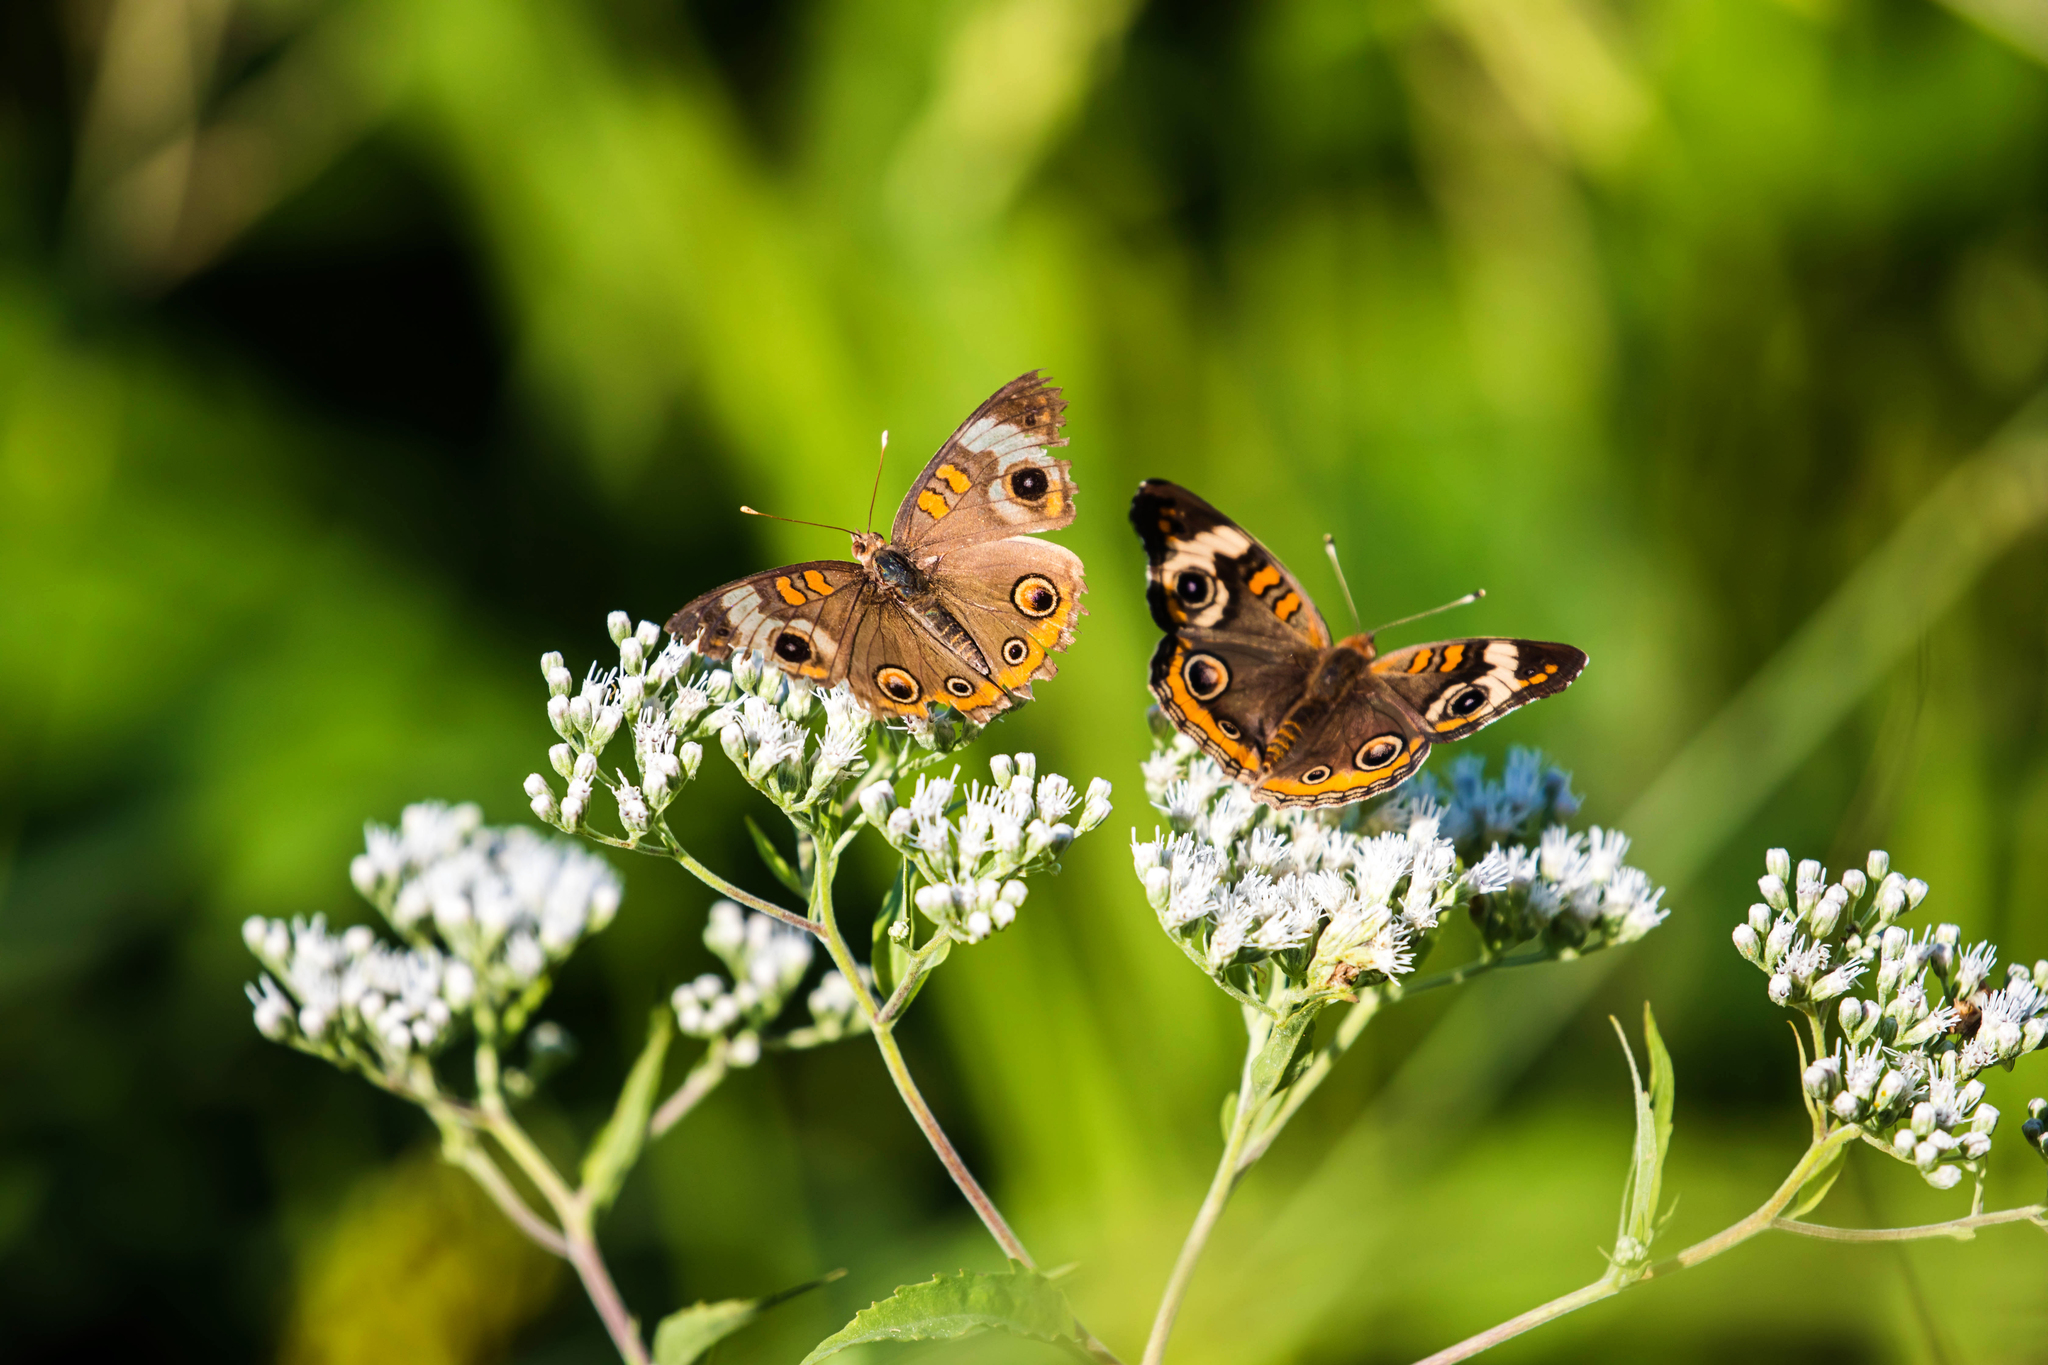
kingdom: Animalia
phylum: Arthropoda
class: Insecta
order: Lepidoptera
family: Nymphalidae
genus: Junonia
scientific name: Junonia coenia
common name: Common buckeye
